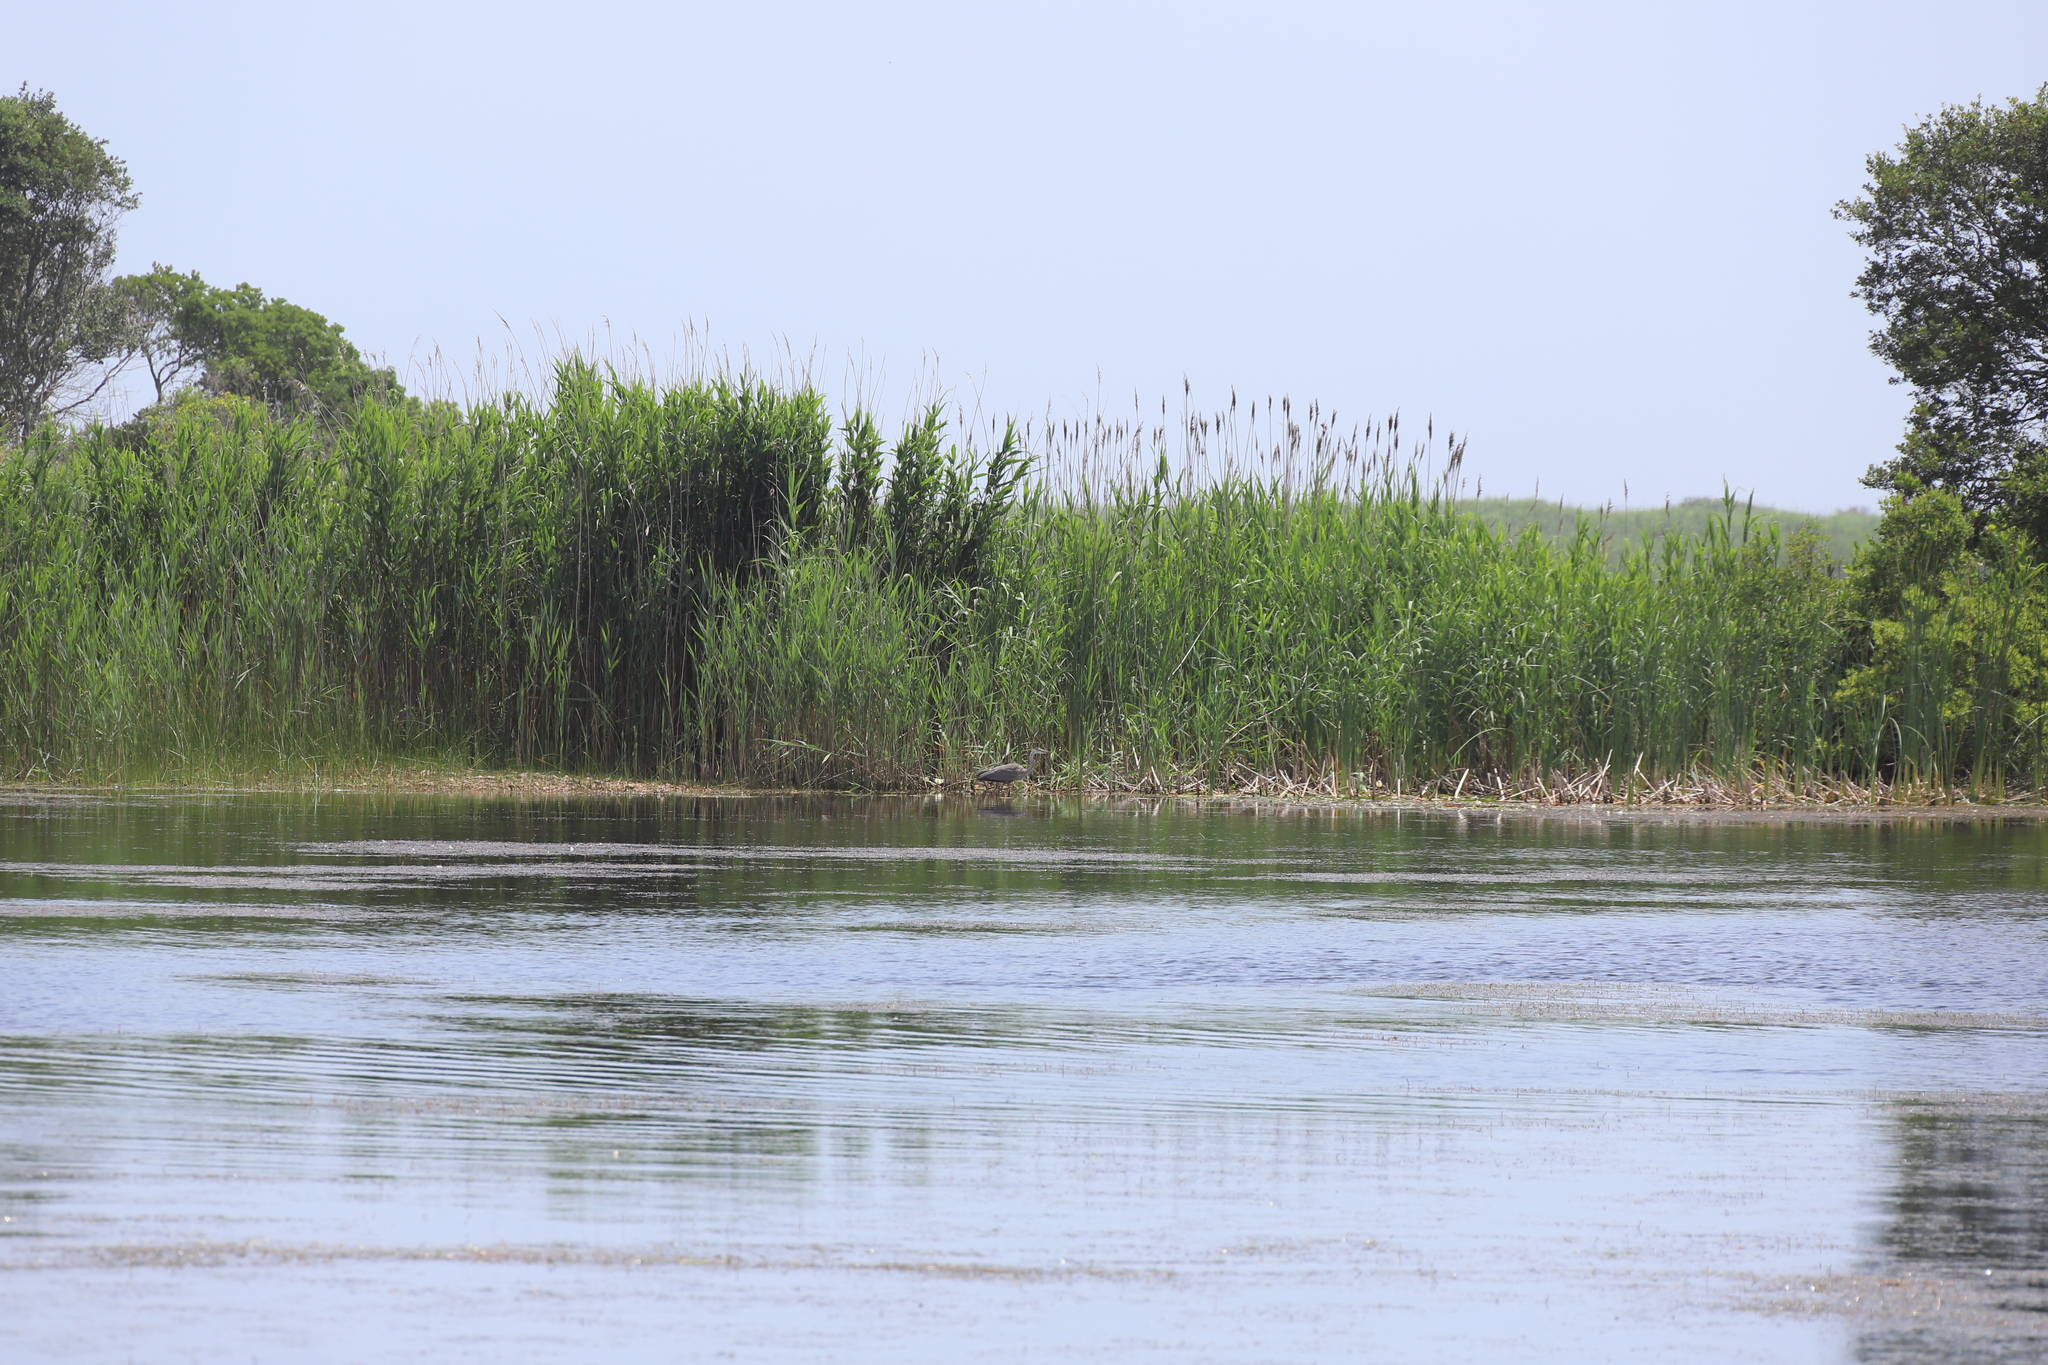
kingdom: Animalia
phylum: Chordata
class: Aves
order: Pelecaniformes
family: Ardeidae
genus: Ardea
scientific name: Ardea herodias
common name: Great blue heron
